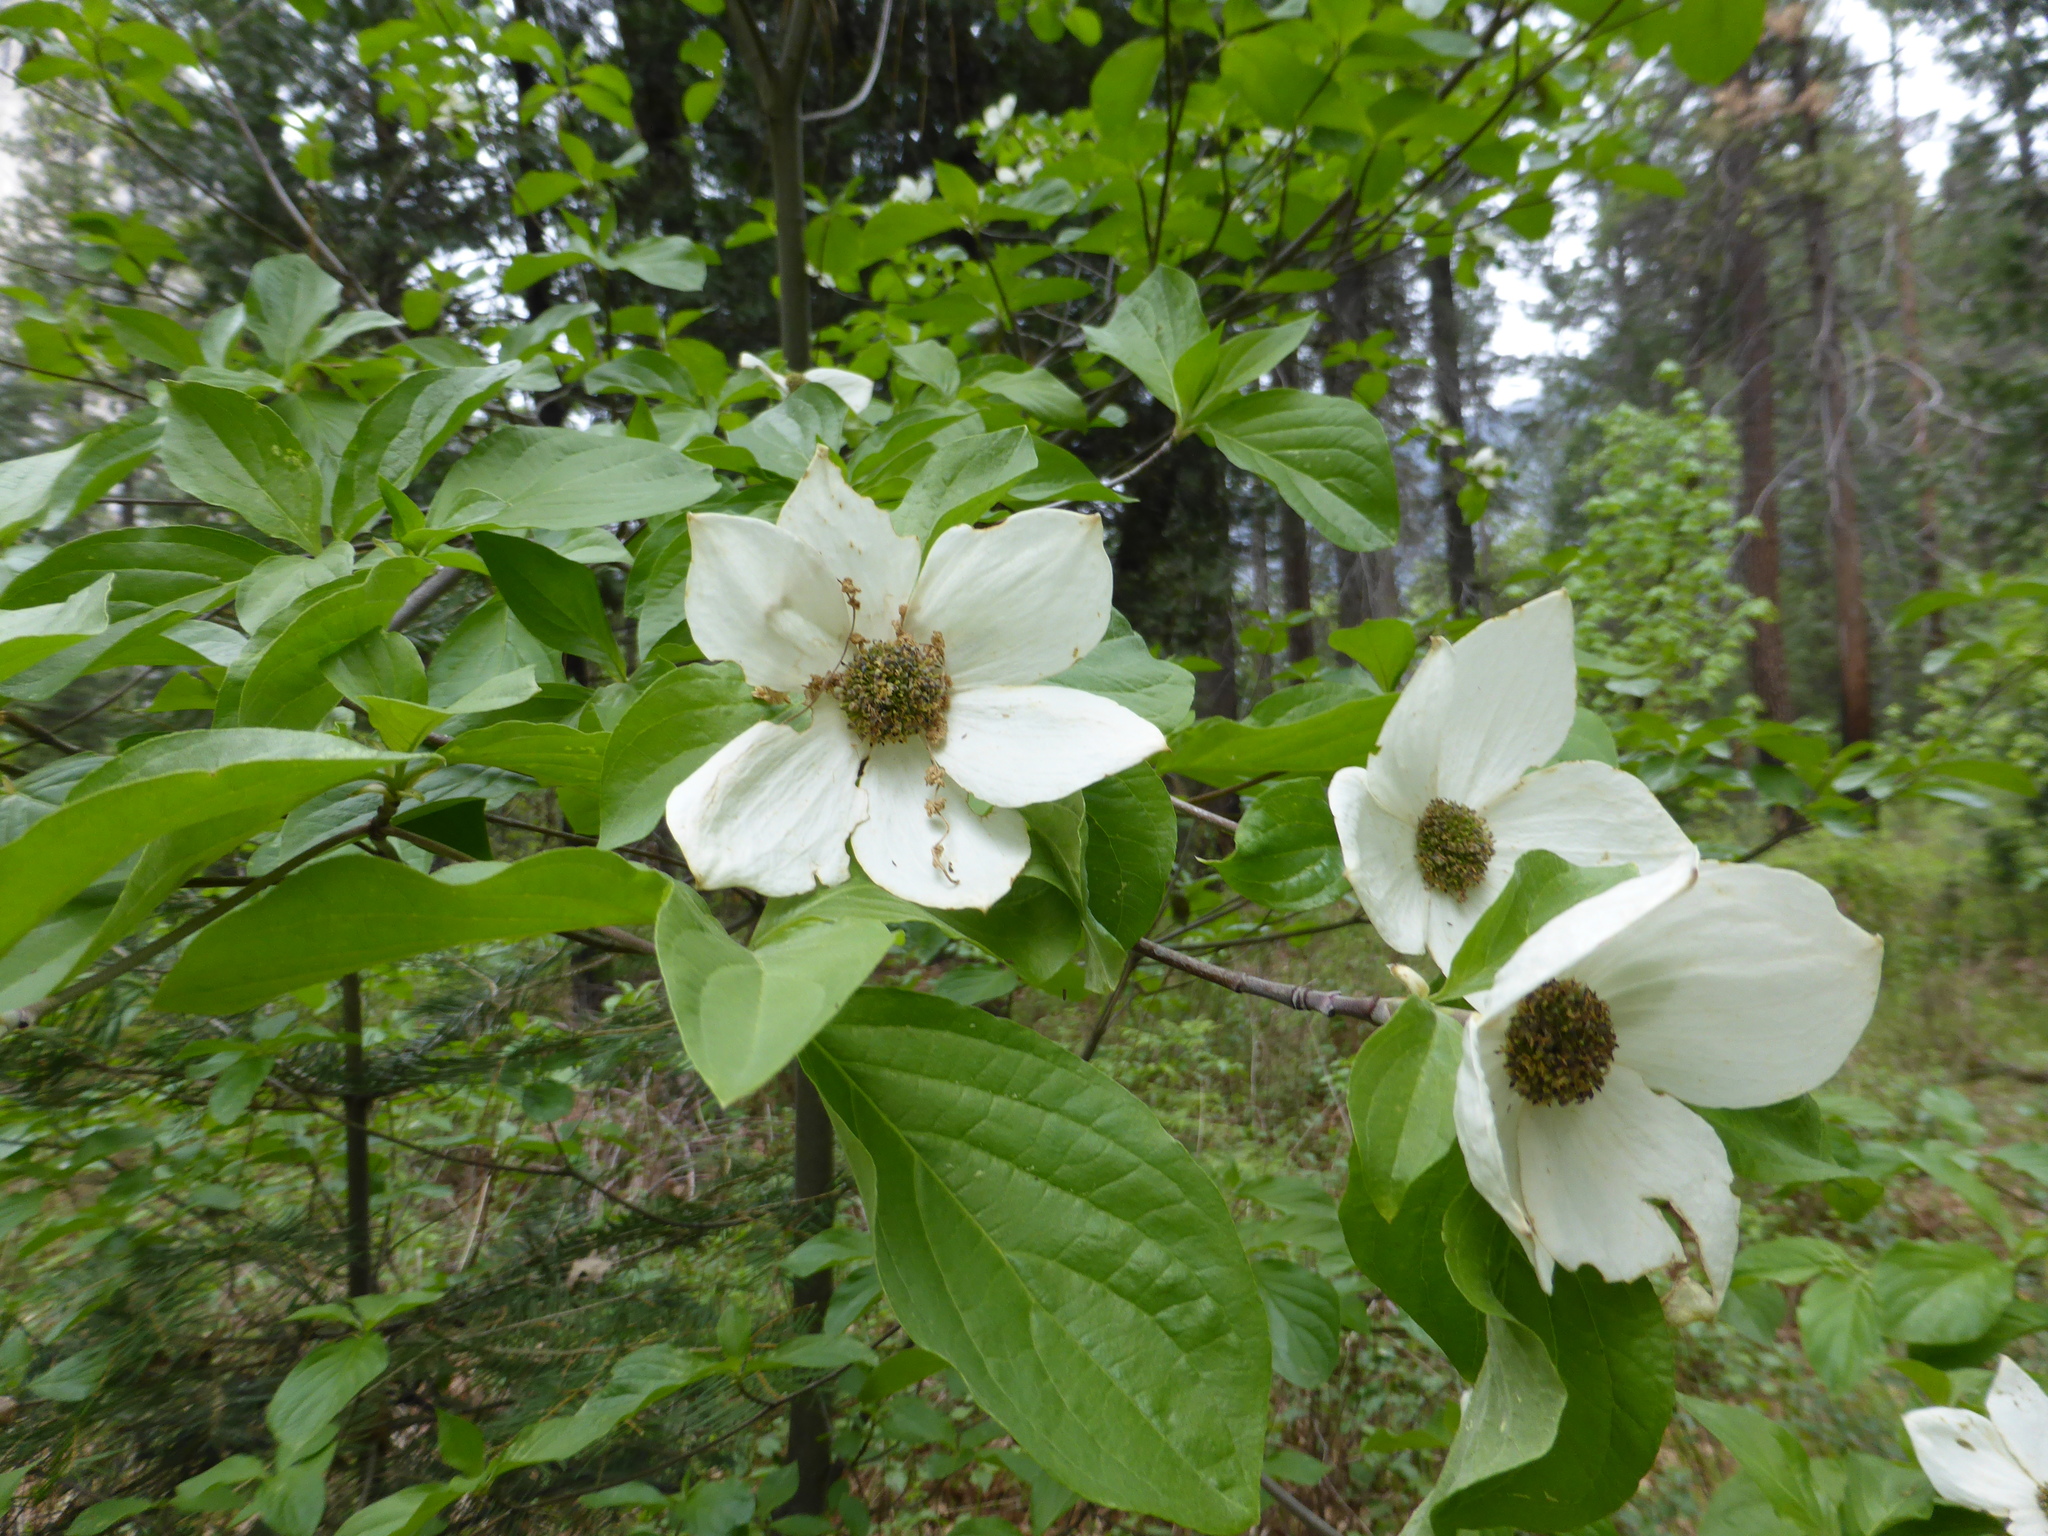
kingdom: Plantae
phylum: Tracheophyta
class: Magnoliopsida
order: Cornales
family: Cornaceae
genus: Cornus
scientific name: Cornus nuttallii
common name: Pacific dogwood
